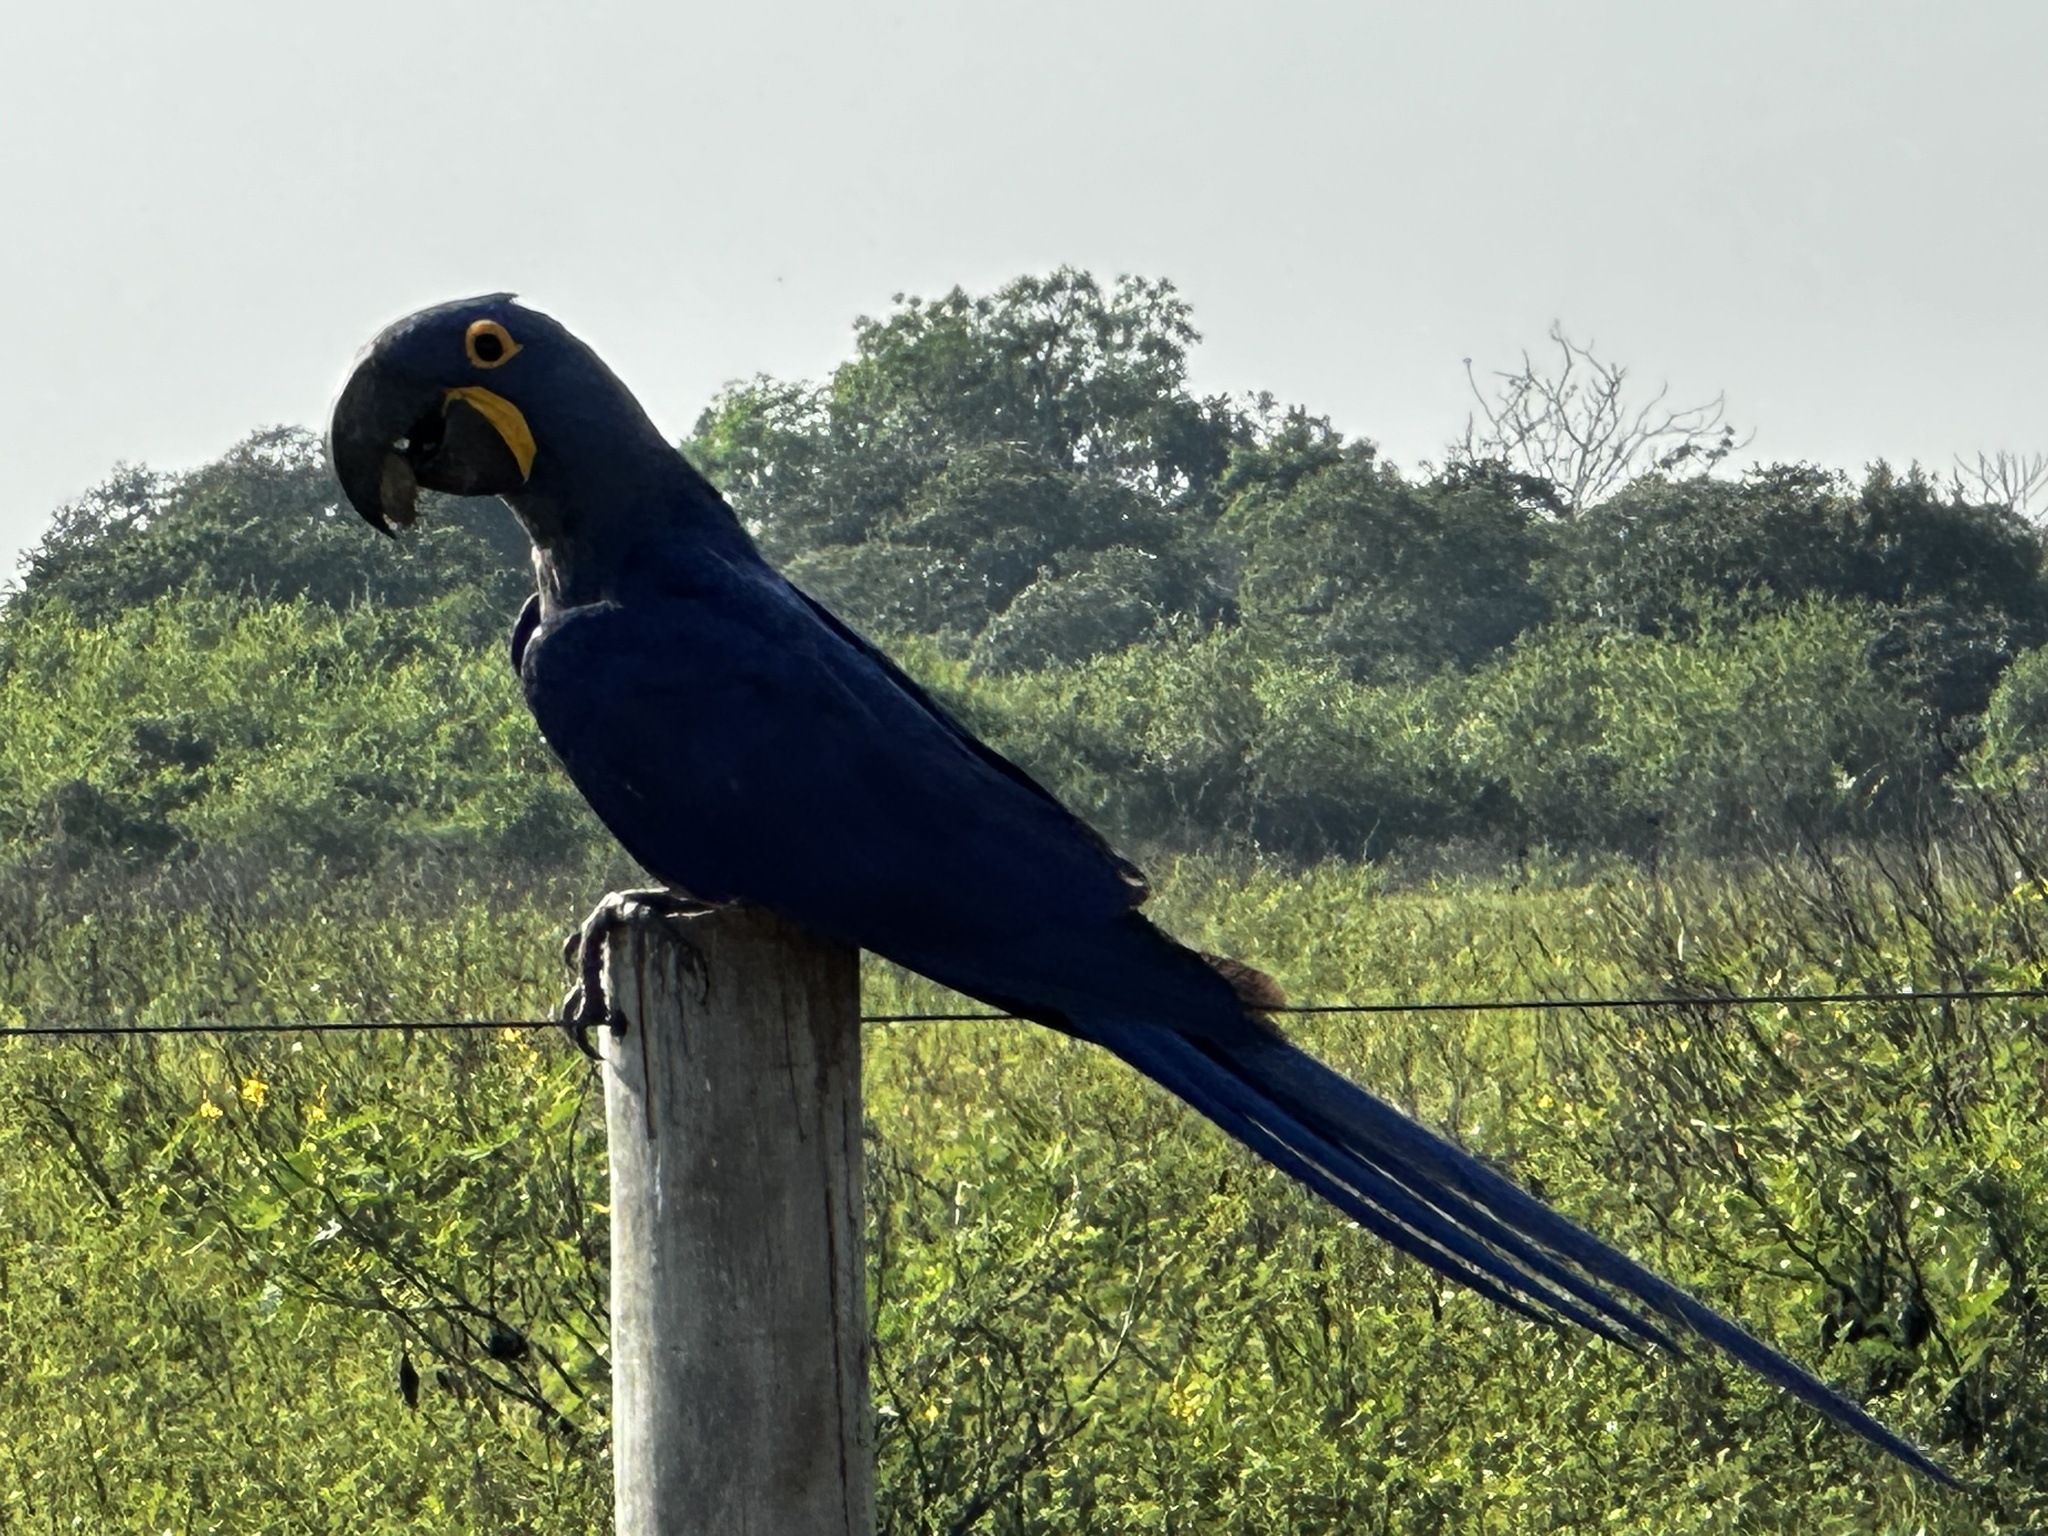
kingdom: Animalia
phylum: Chordata
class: Aves
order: Psittaciformes
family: Psittacidae
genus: Anodorhynchus
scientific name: Anodorhynchus hyacinthinus
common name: Hyacinth macaw
